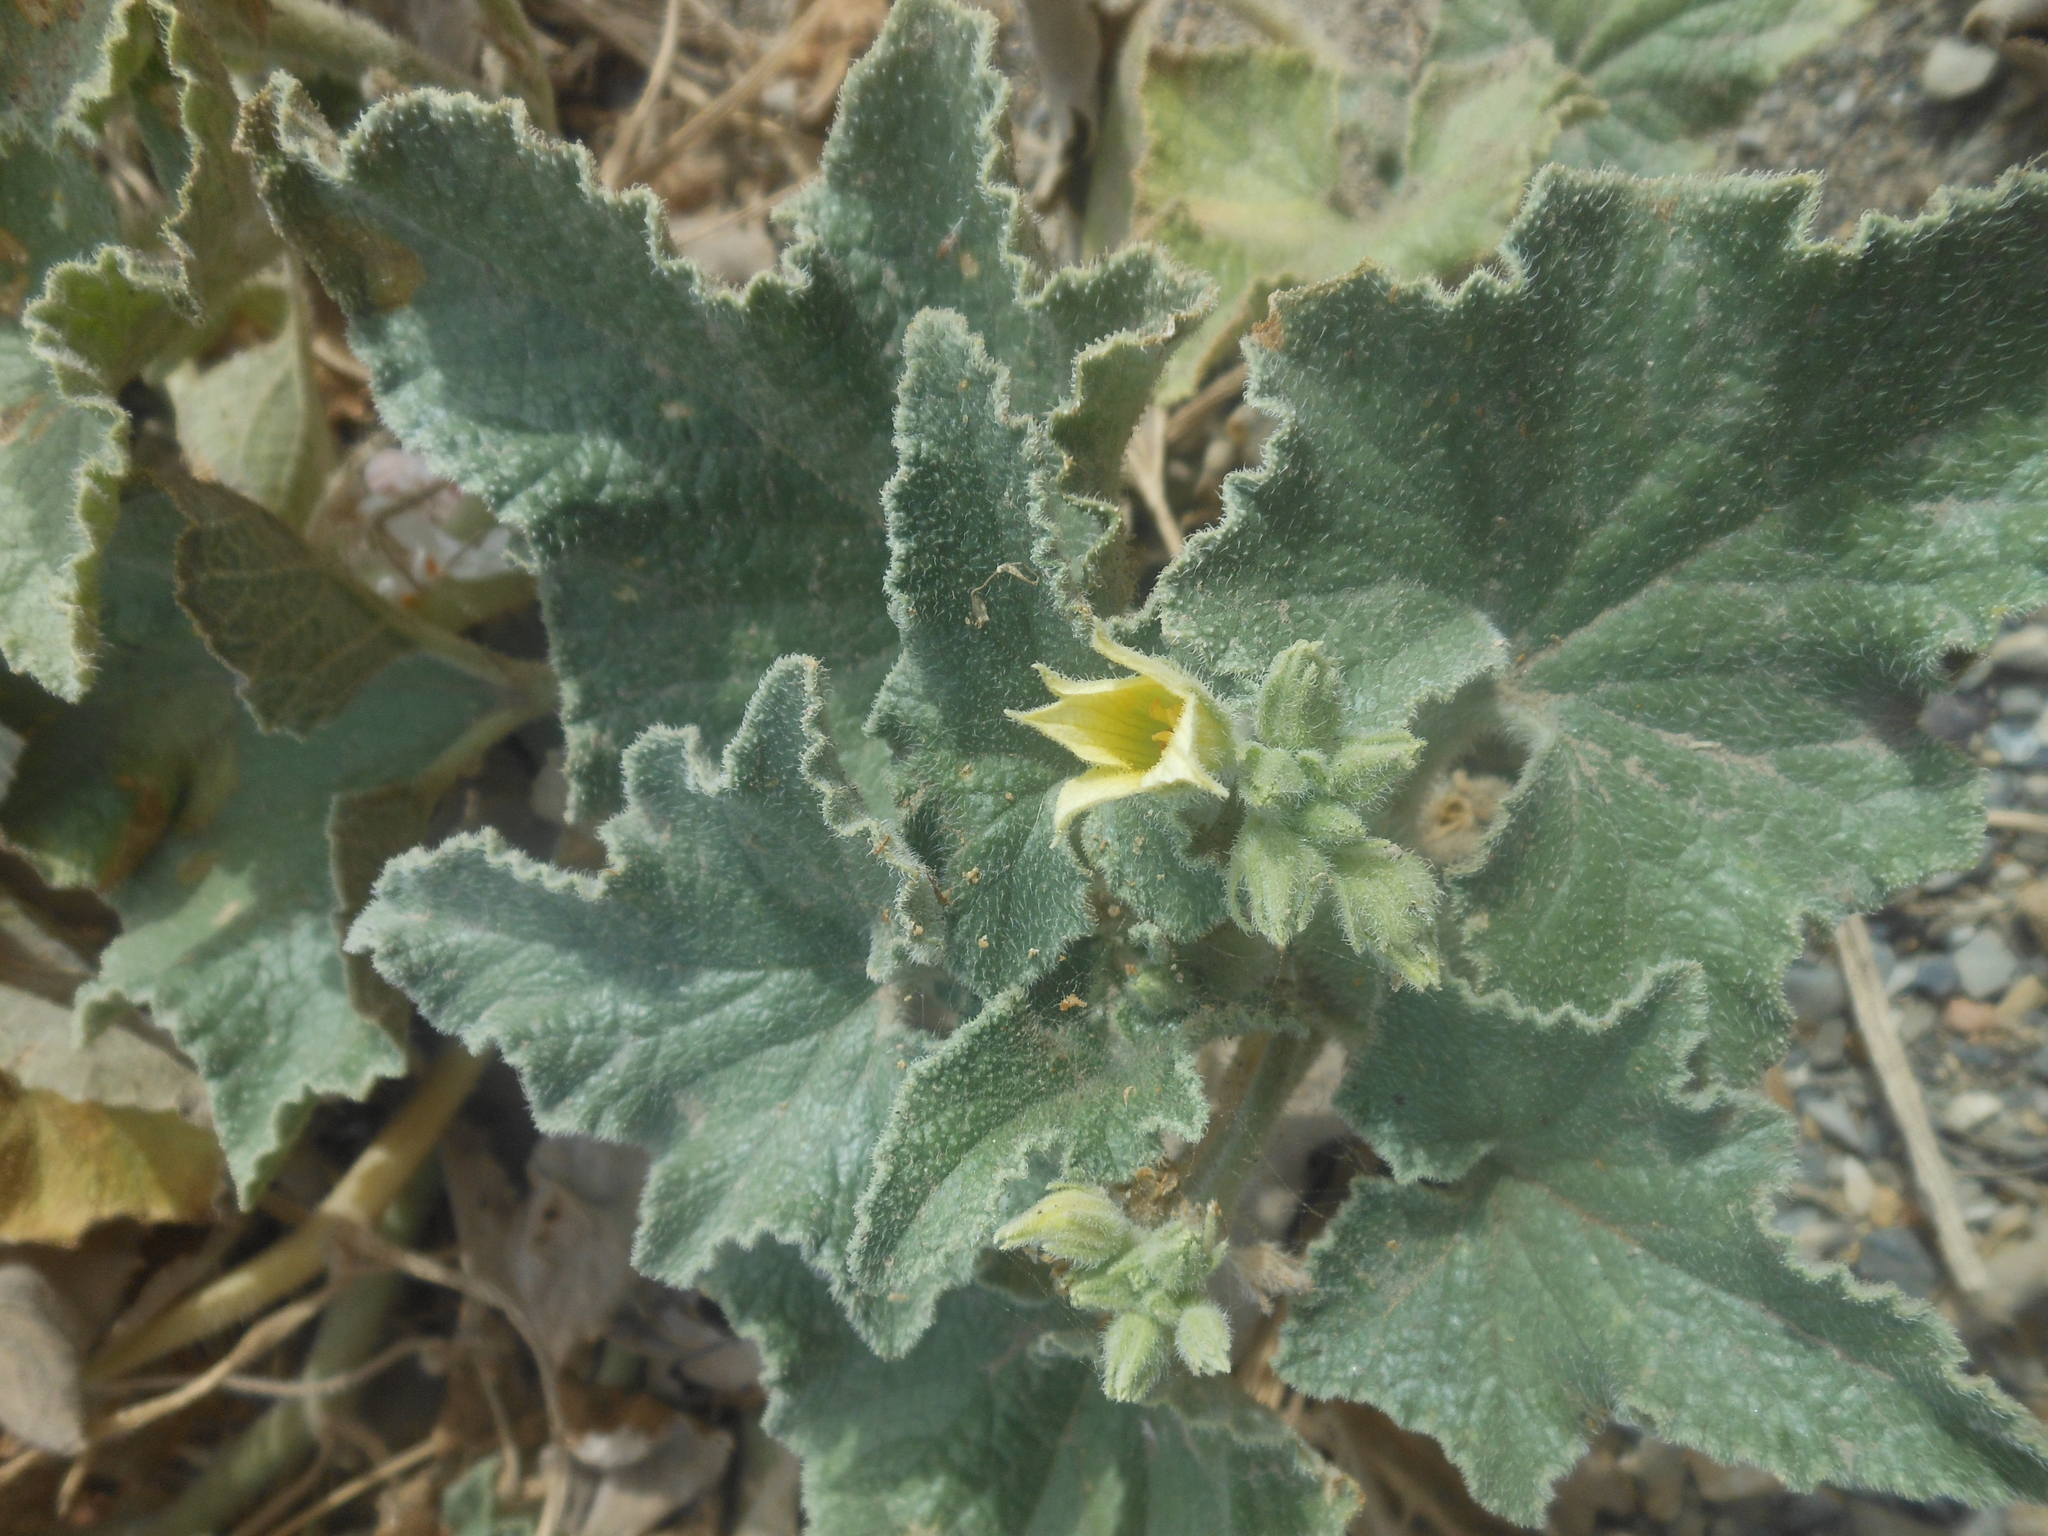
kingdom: Plantae
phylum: Tracheophyta
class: Magnoliopsida
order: Cucurbitales
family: Cucurbitaceae
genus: Ecballium
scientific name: Ecballium elaterium
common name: Squirting cucumber
